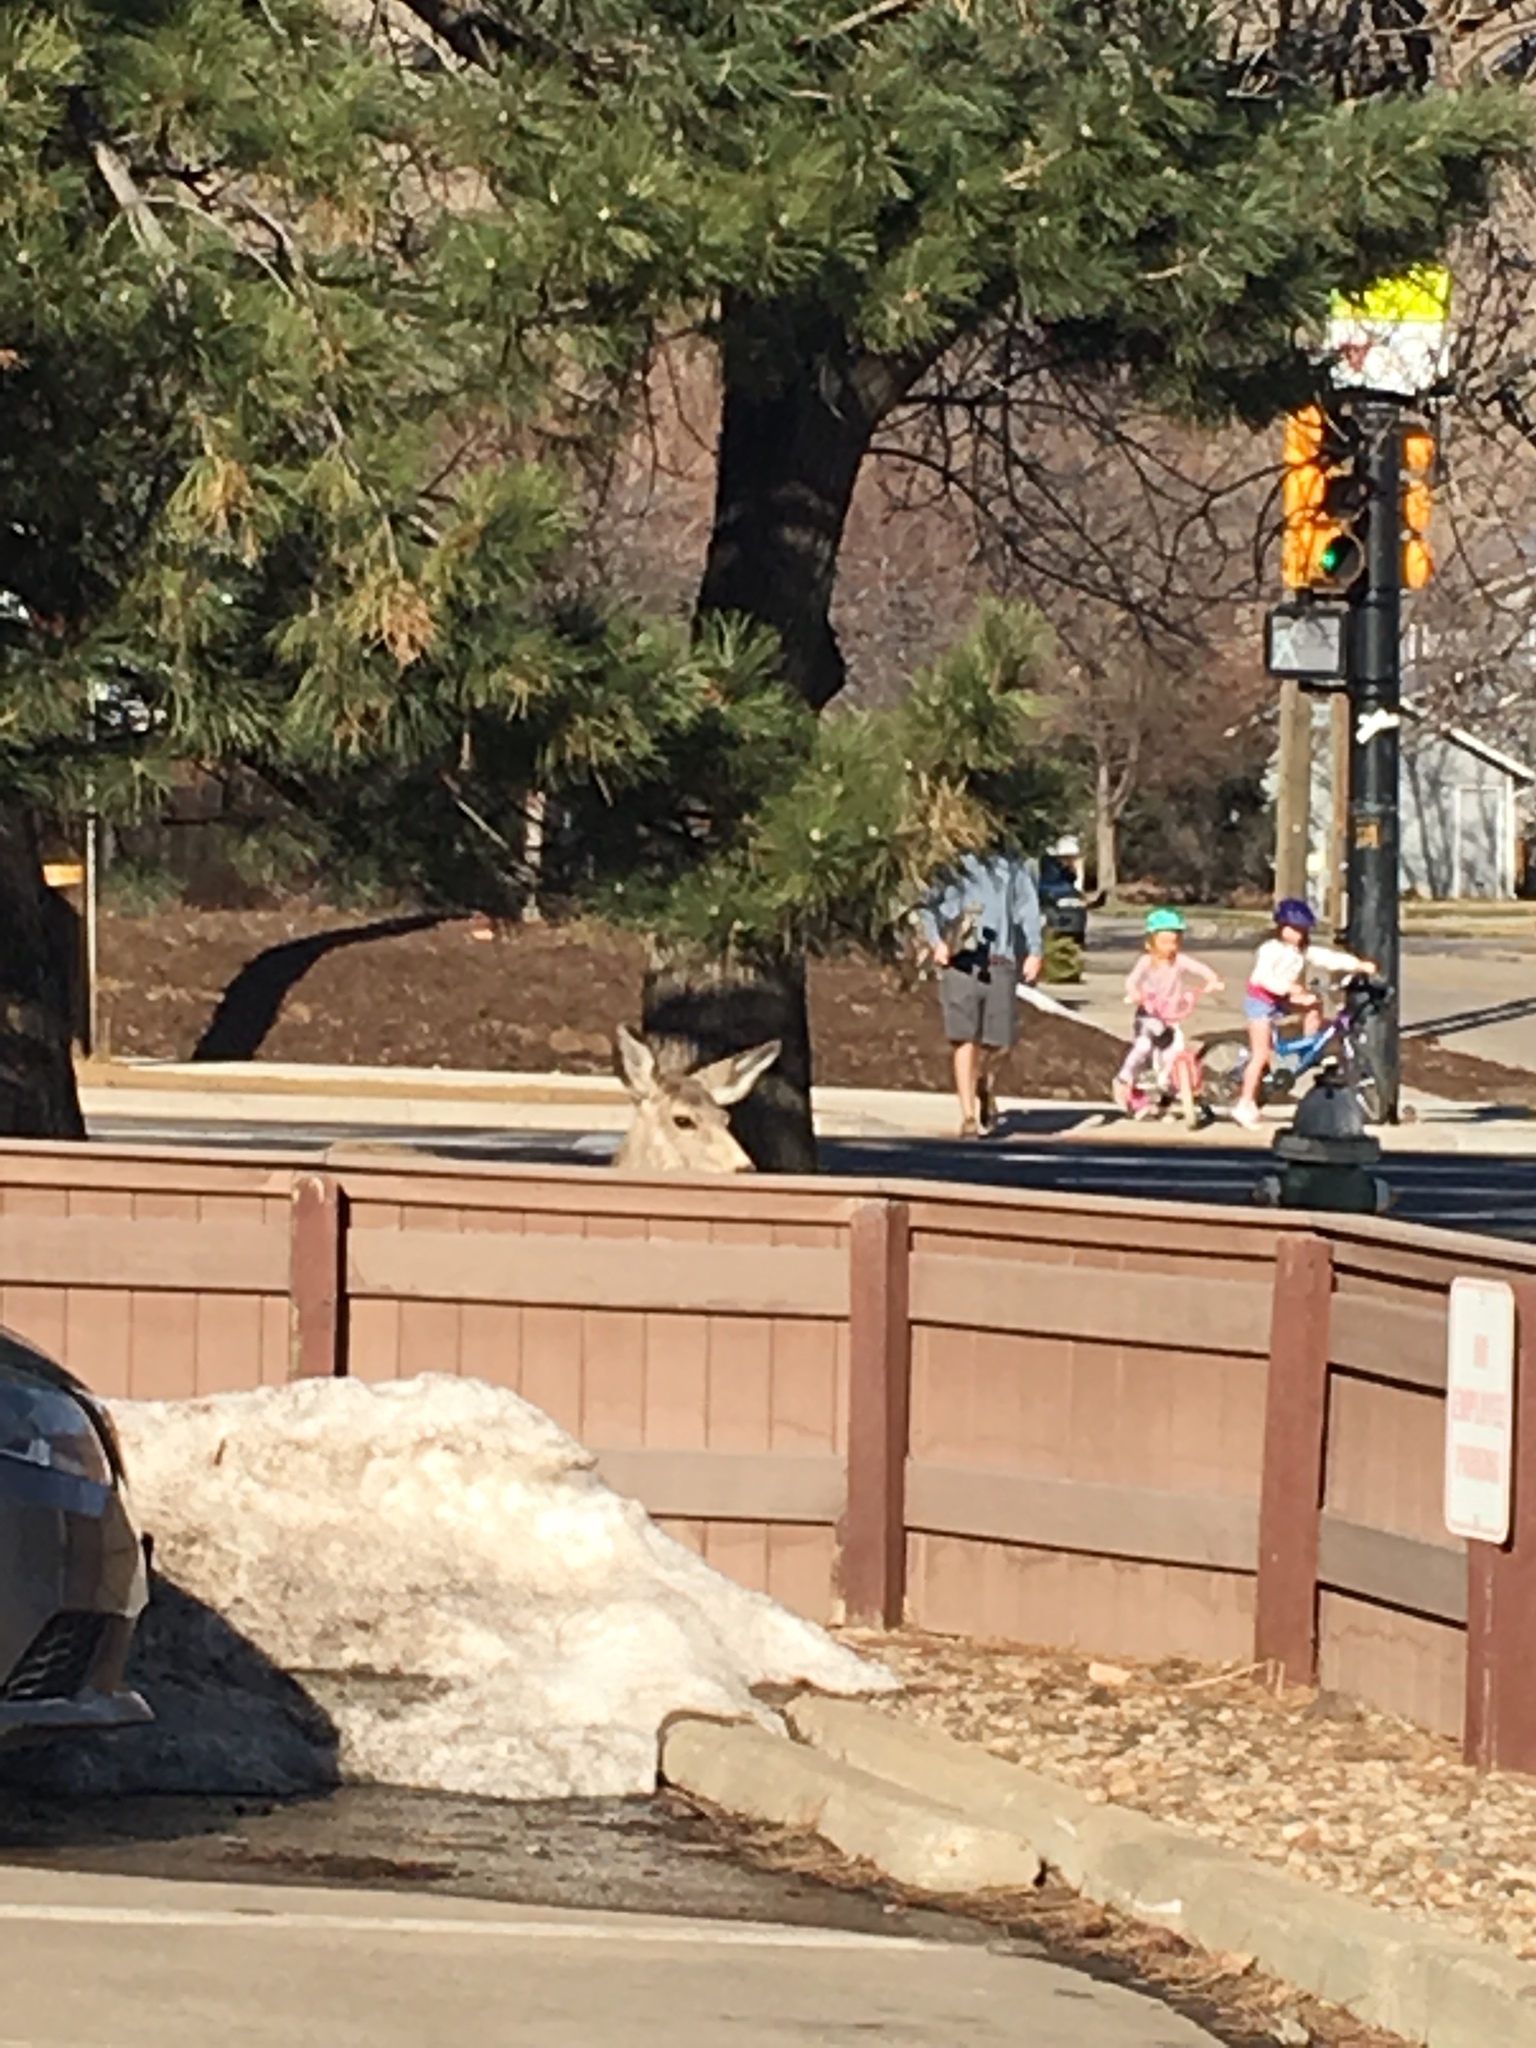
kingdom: Animalia
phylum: Chordata
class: Mammalia
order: Artiodactyla
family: Cervidae
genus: Odocoileus
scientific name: Odocoileus hemionus
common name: Mule deer
